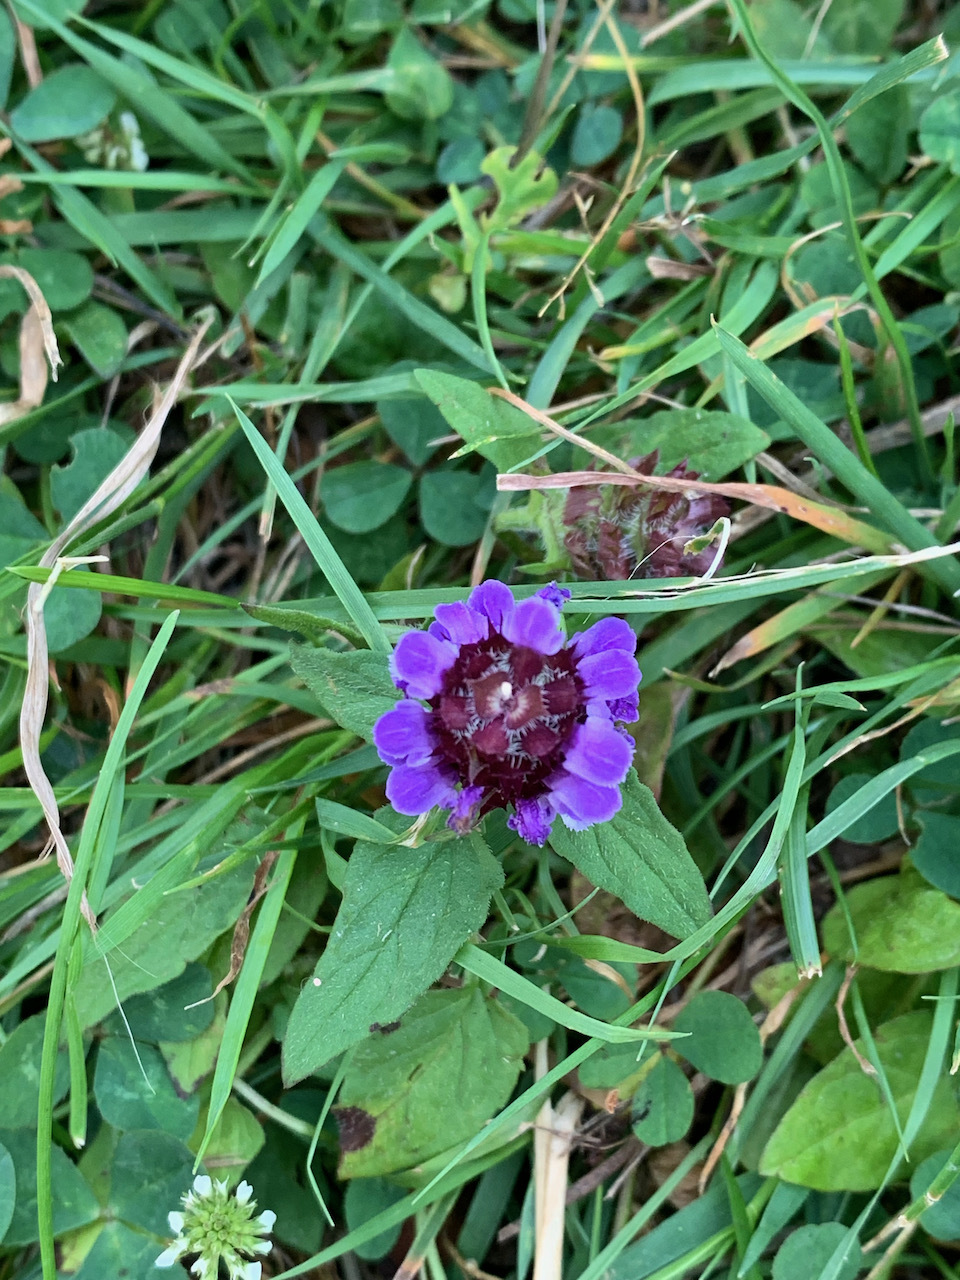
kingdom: Plantae
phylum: Tracheophyta
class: Magnoliopsida
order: Lamiales
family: Lamiaceae
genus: Prunella
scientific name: Prunella vulgaris
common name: Heal-all
